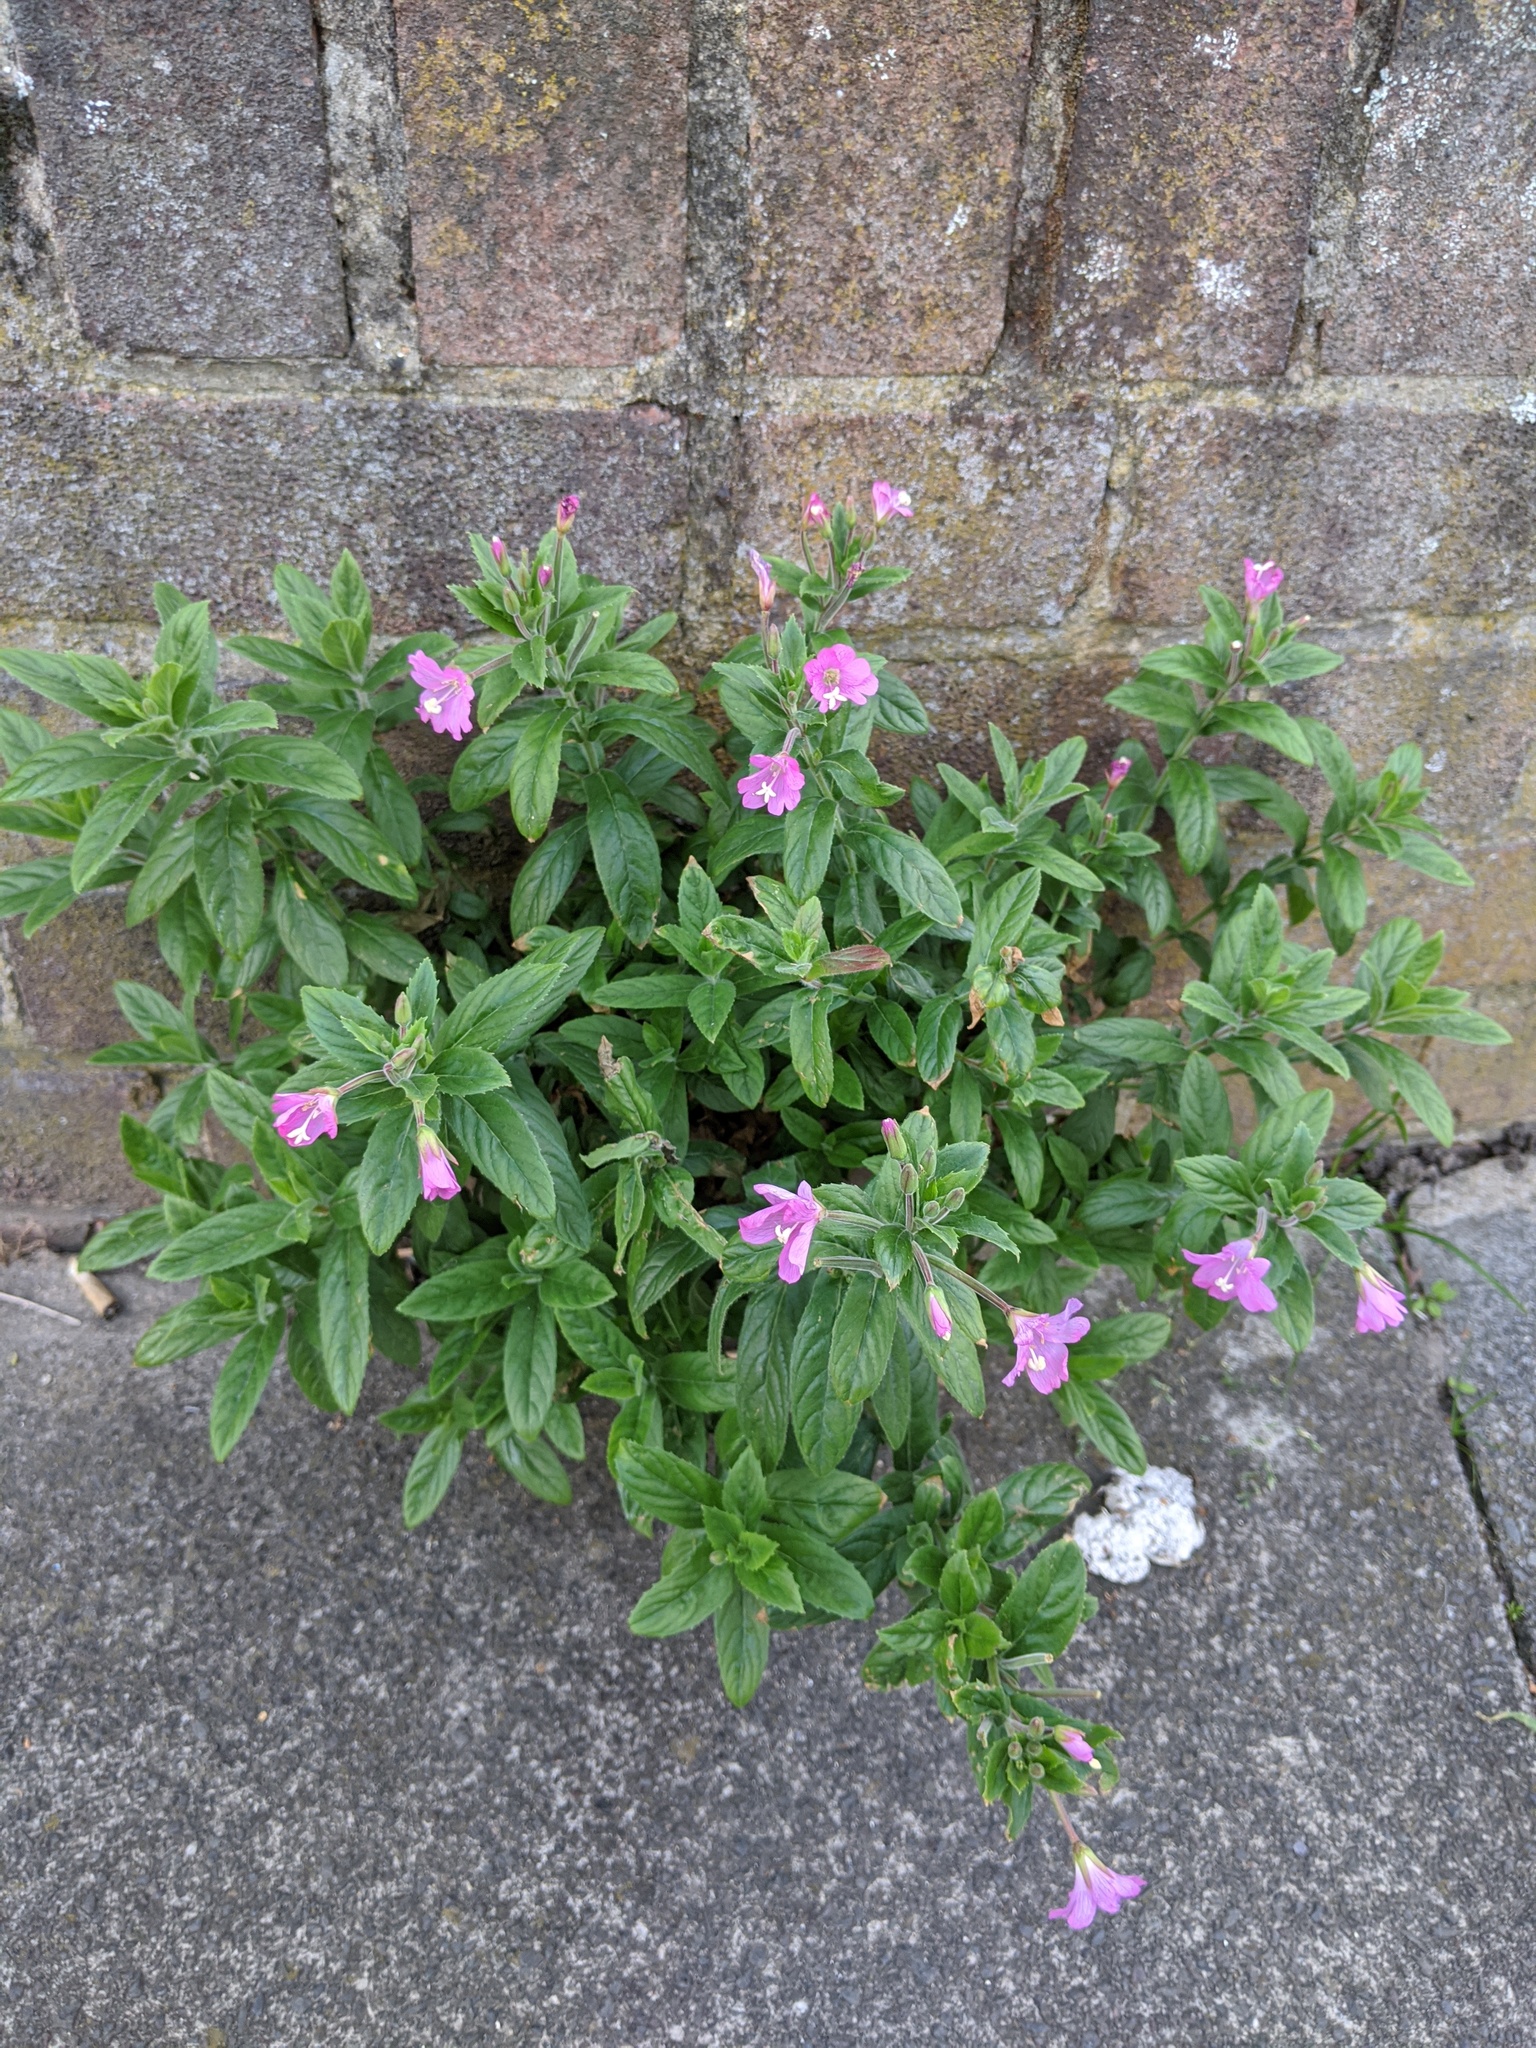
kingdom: Plantae
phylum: Tracheophyta
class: Magnoliopsida
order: Myrtales
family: Onagraceae
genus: Epilobium
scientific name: Epilobium hirsutum
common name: Great willowherb
